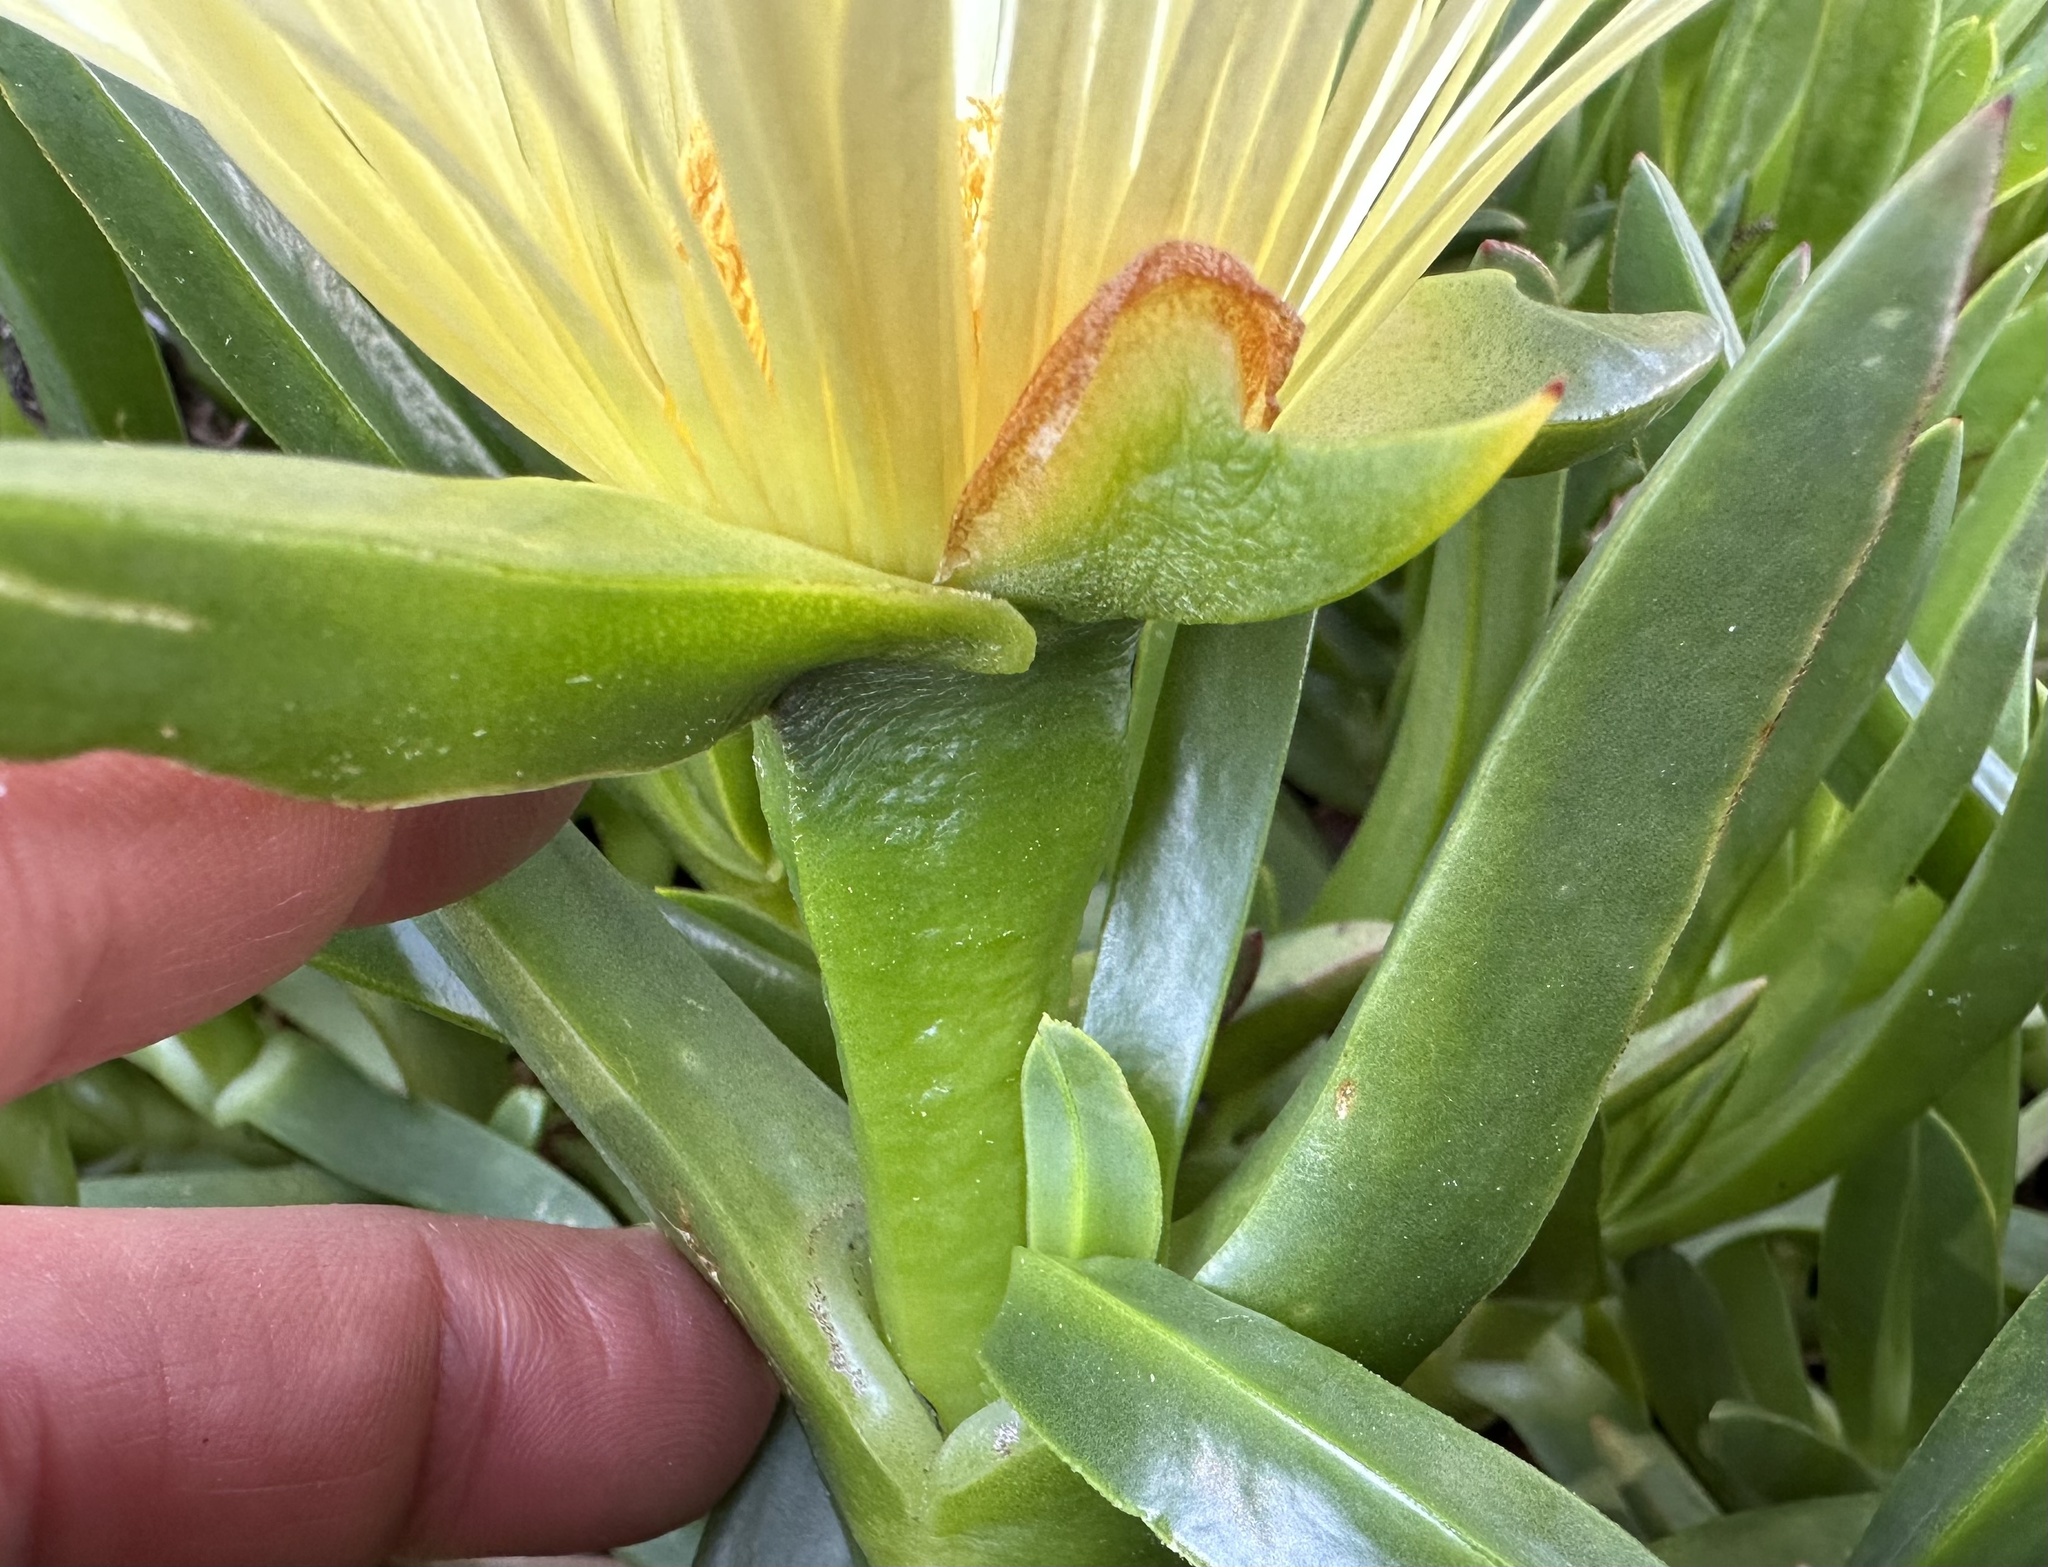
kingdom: Plantae
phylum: Tracheophyta
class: Magnoliopsida
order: Caryophyllales
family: Aizoaceae
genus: Carpobrotus
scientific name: Carpobrotus edulis
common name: Hottentot-fig
